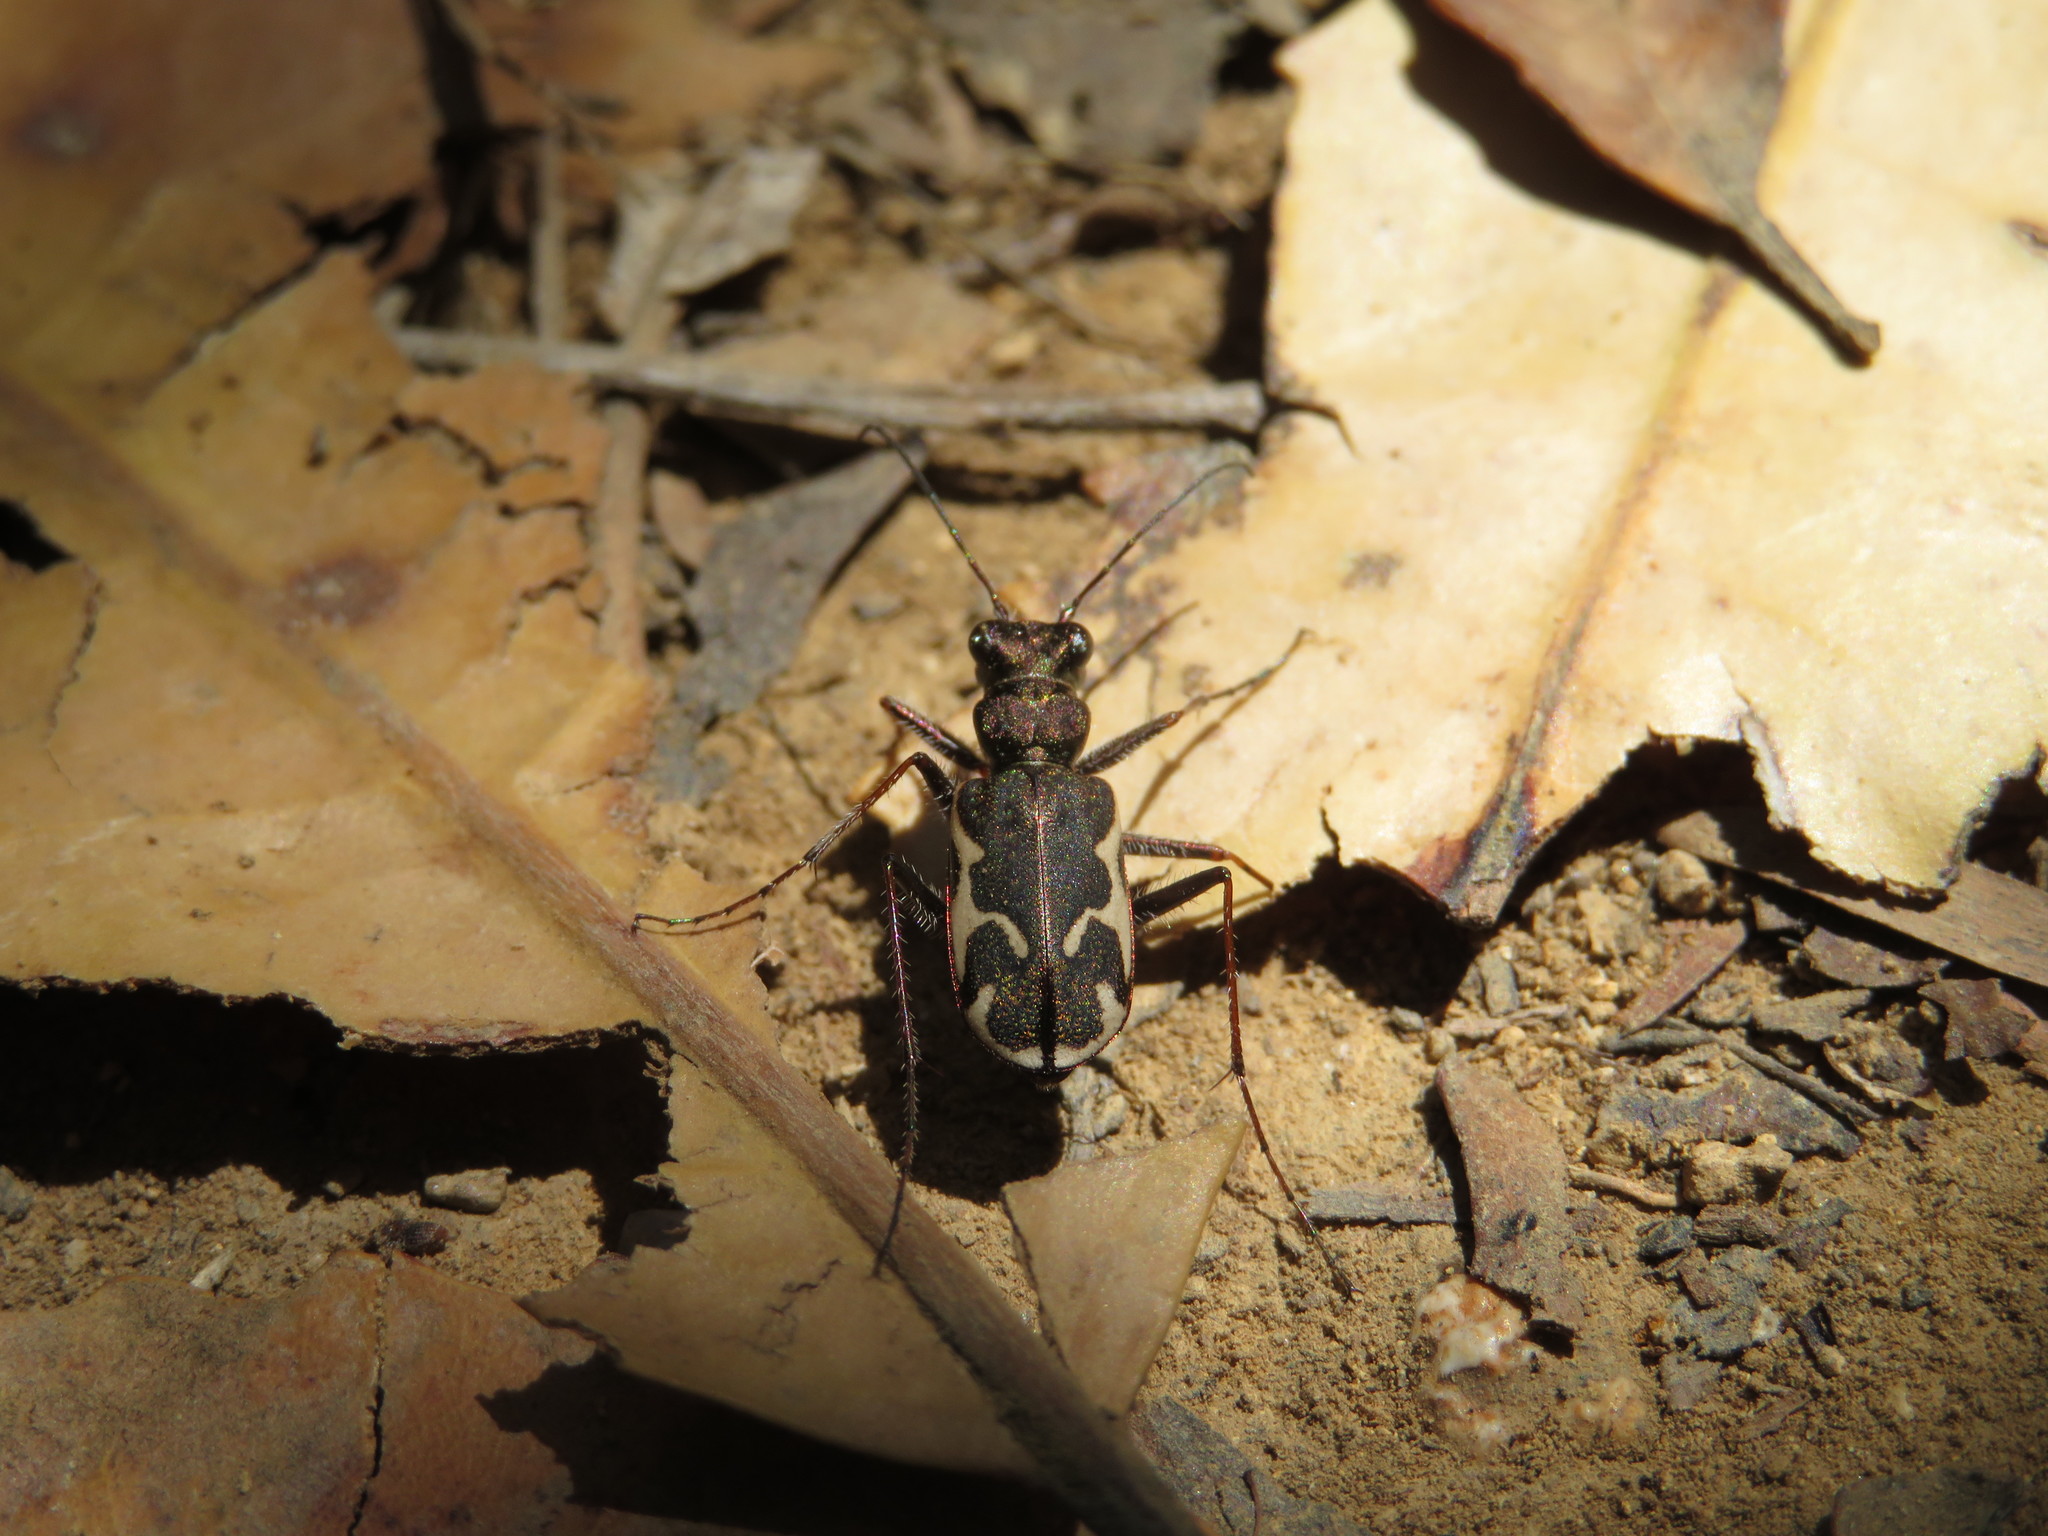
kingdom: Animalia
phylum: Arthropoda
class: Insecta
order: Coleoptera
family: Carabidae
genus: Neocicindela
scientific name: Neocicindela tuberculata
